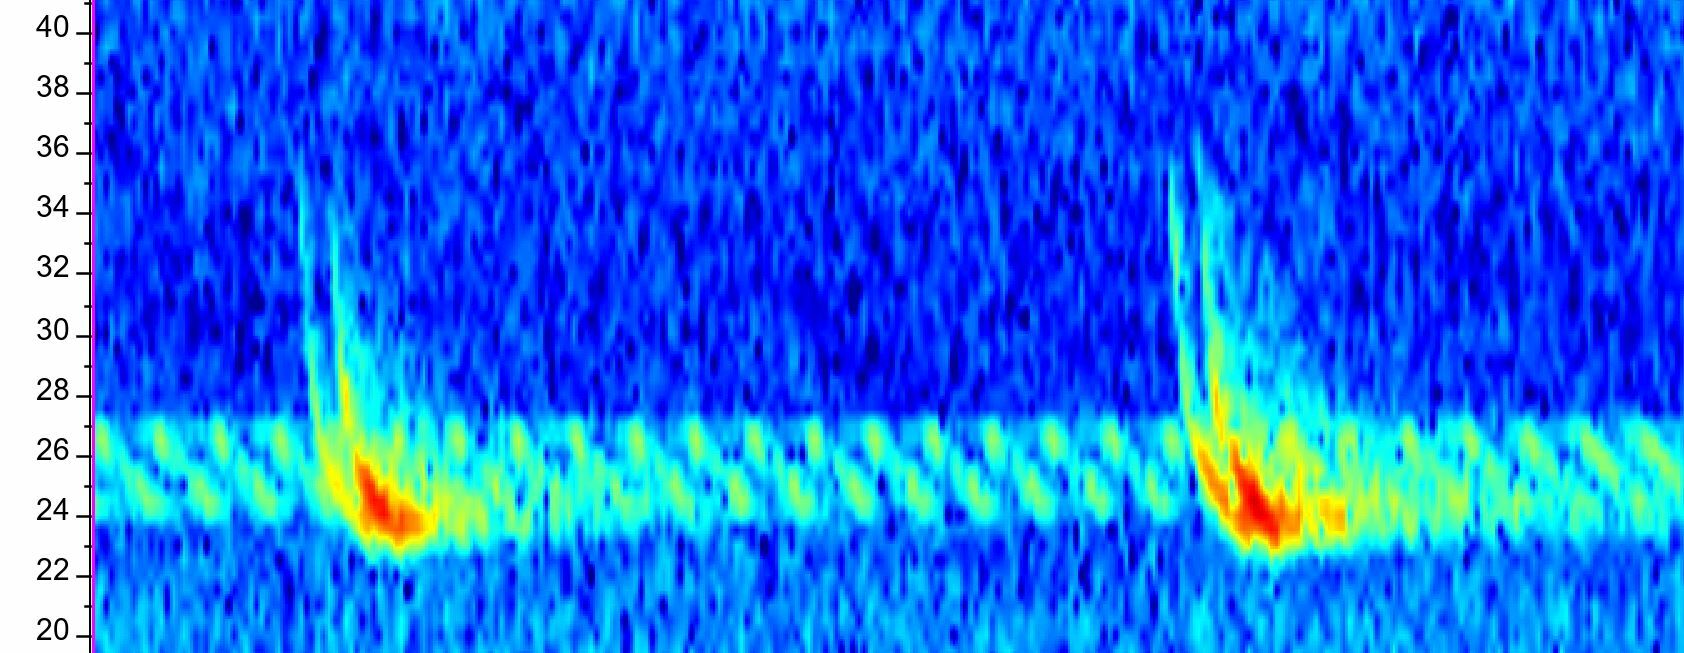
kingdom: Animalia
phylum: Chordata
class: Mammalia
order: Chiroptera
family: Vespertilionidae
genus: Eptesicus
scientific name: Eptesicus serotinus
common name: Serotine
